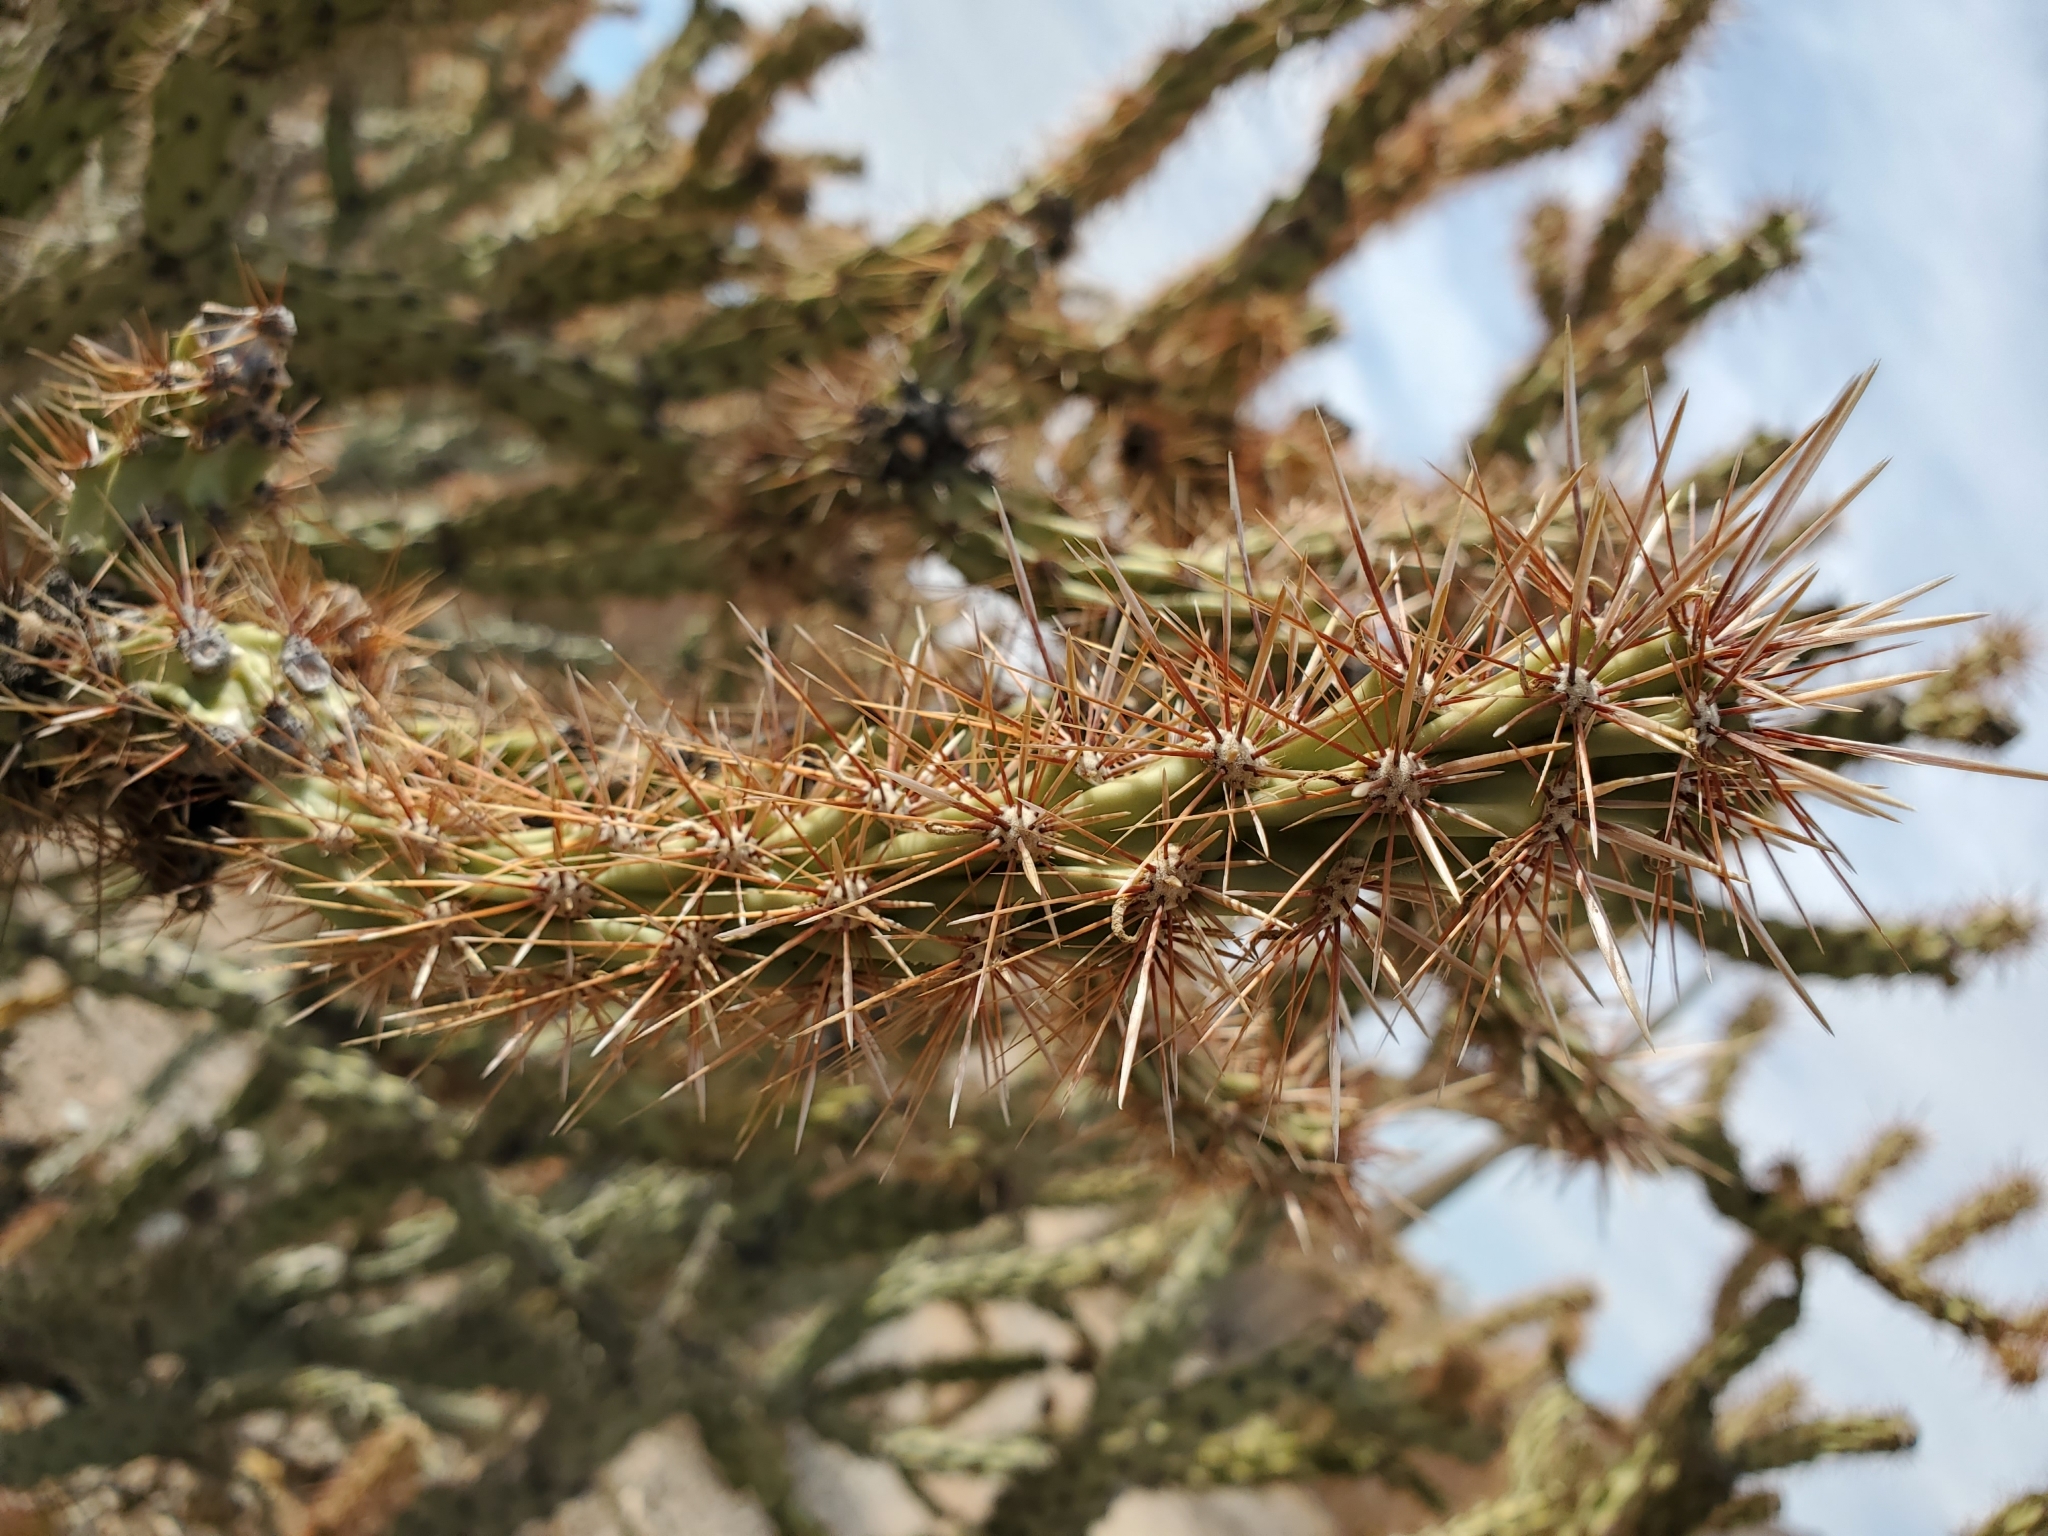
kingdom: Plantae
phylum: Tracheophyta
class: Magnoliopsida
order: Caryophyllales
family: Cactaceae
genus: Cylindropuntia
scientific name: Cylindropuntia acanthocarpa
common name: Buckhorn cholla
